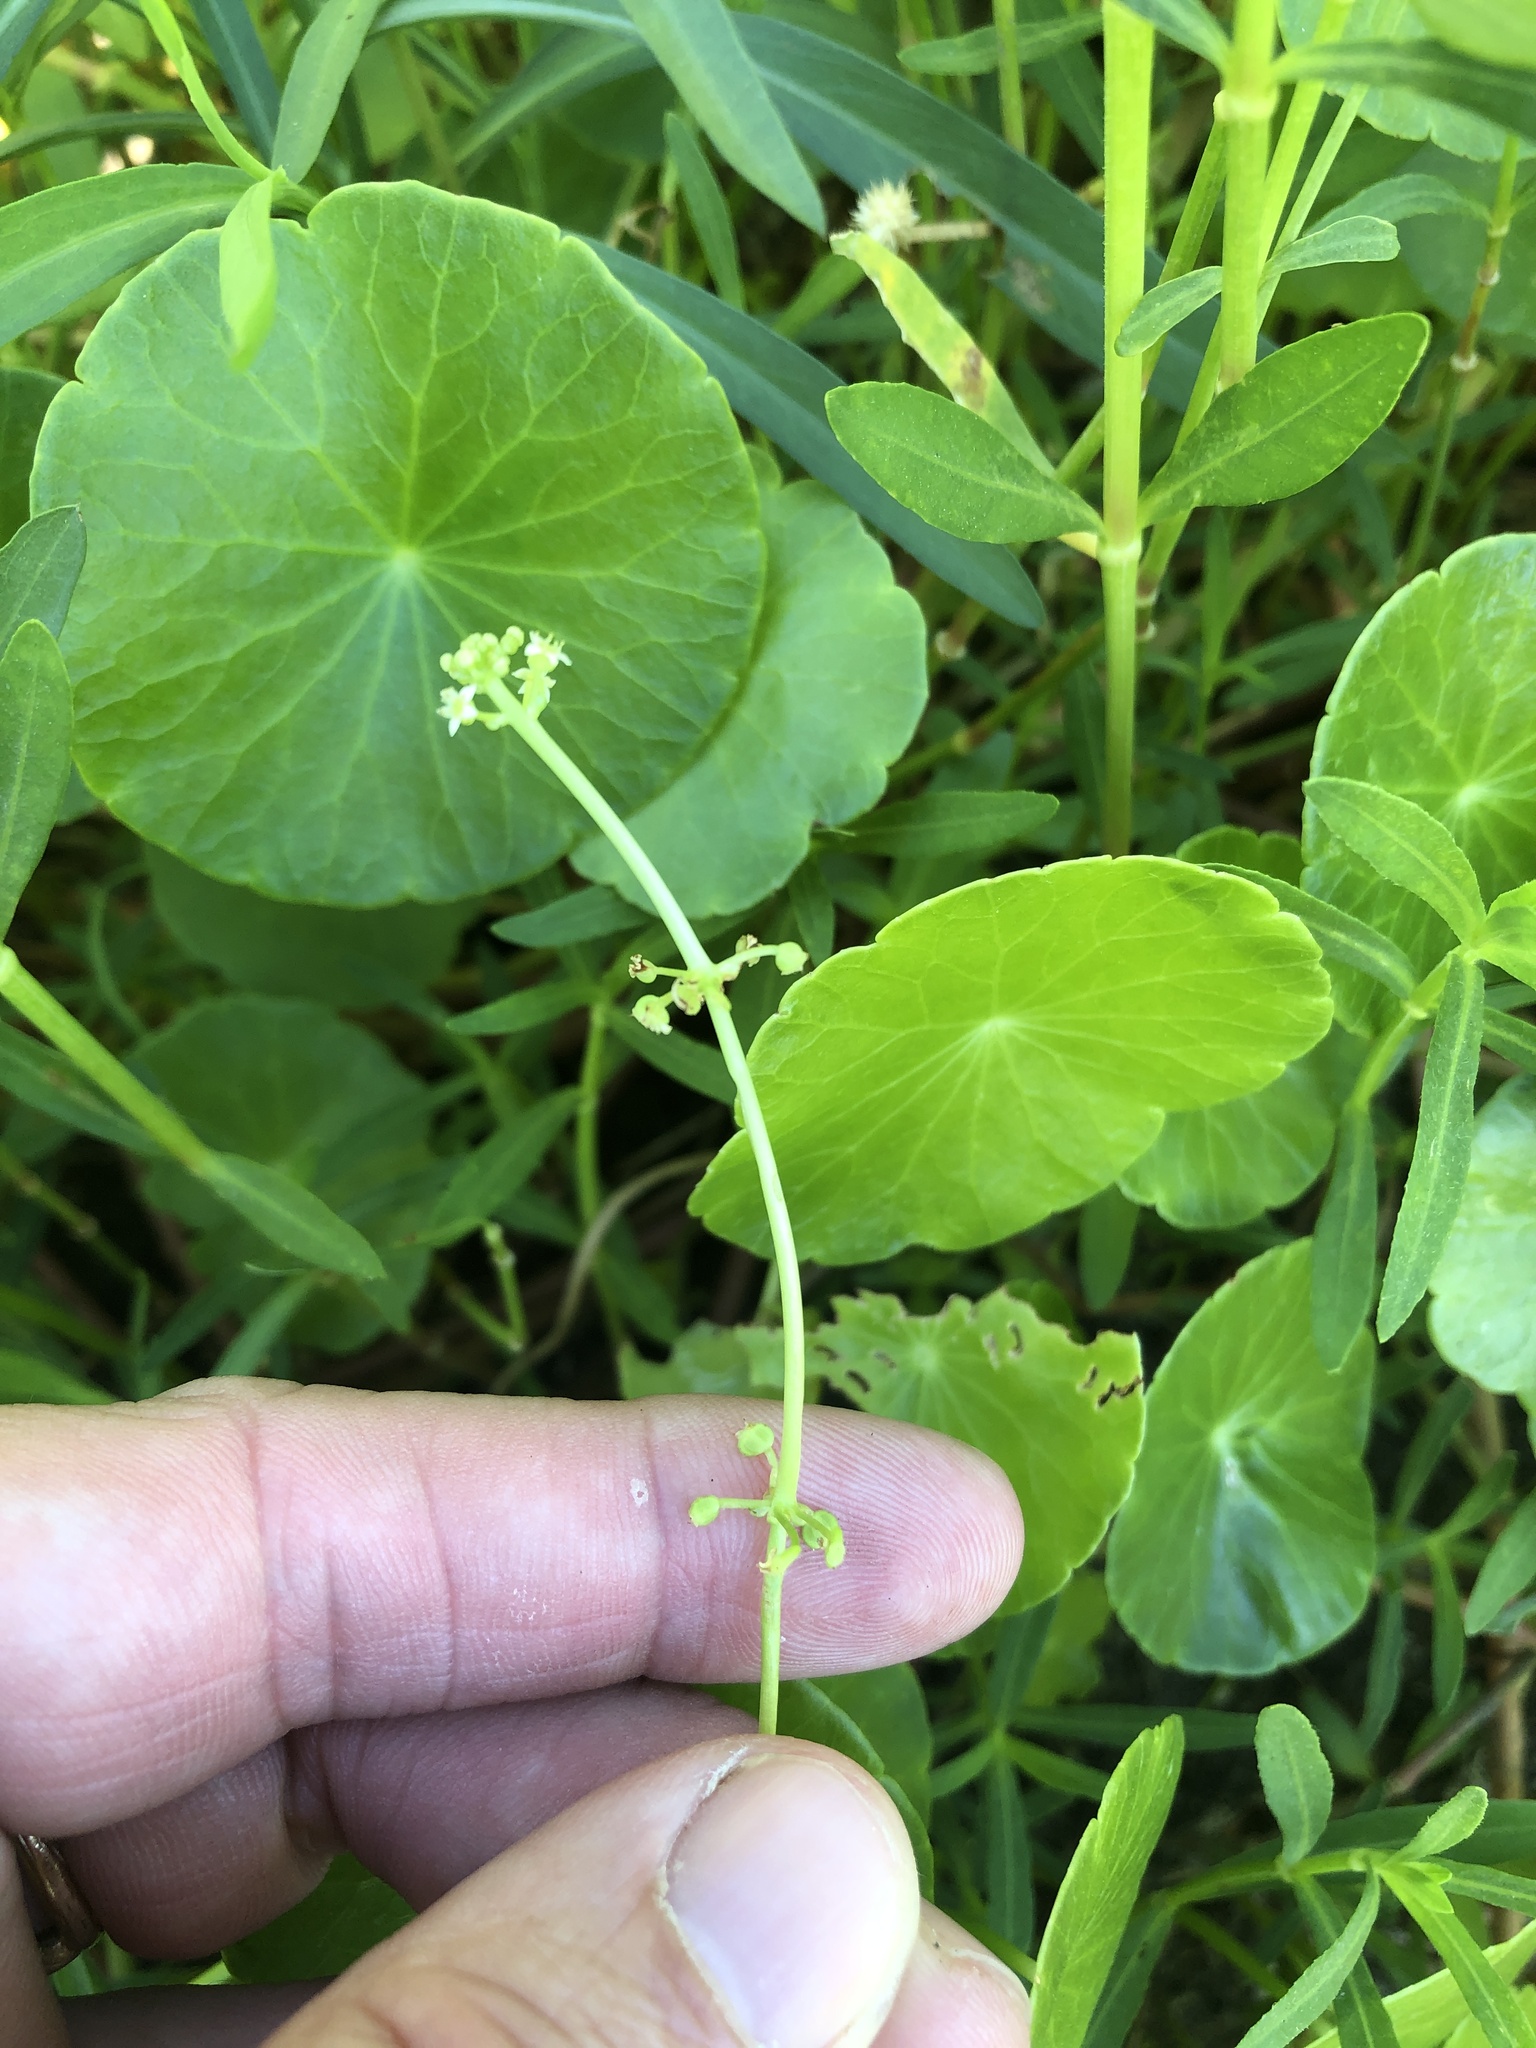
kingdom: Plantae
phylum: Tracheophyta
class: Magnoliopsida
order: Apiales
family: Araliaceae
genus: Hydrocotyle
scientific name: Hydrocotyle prolifera
